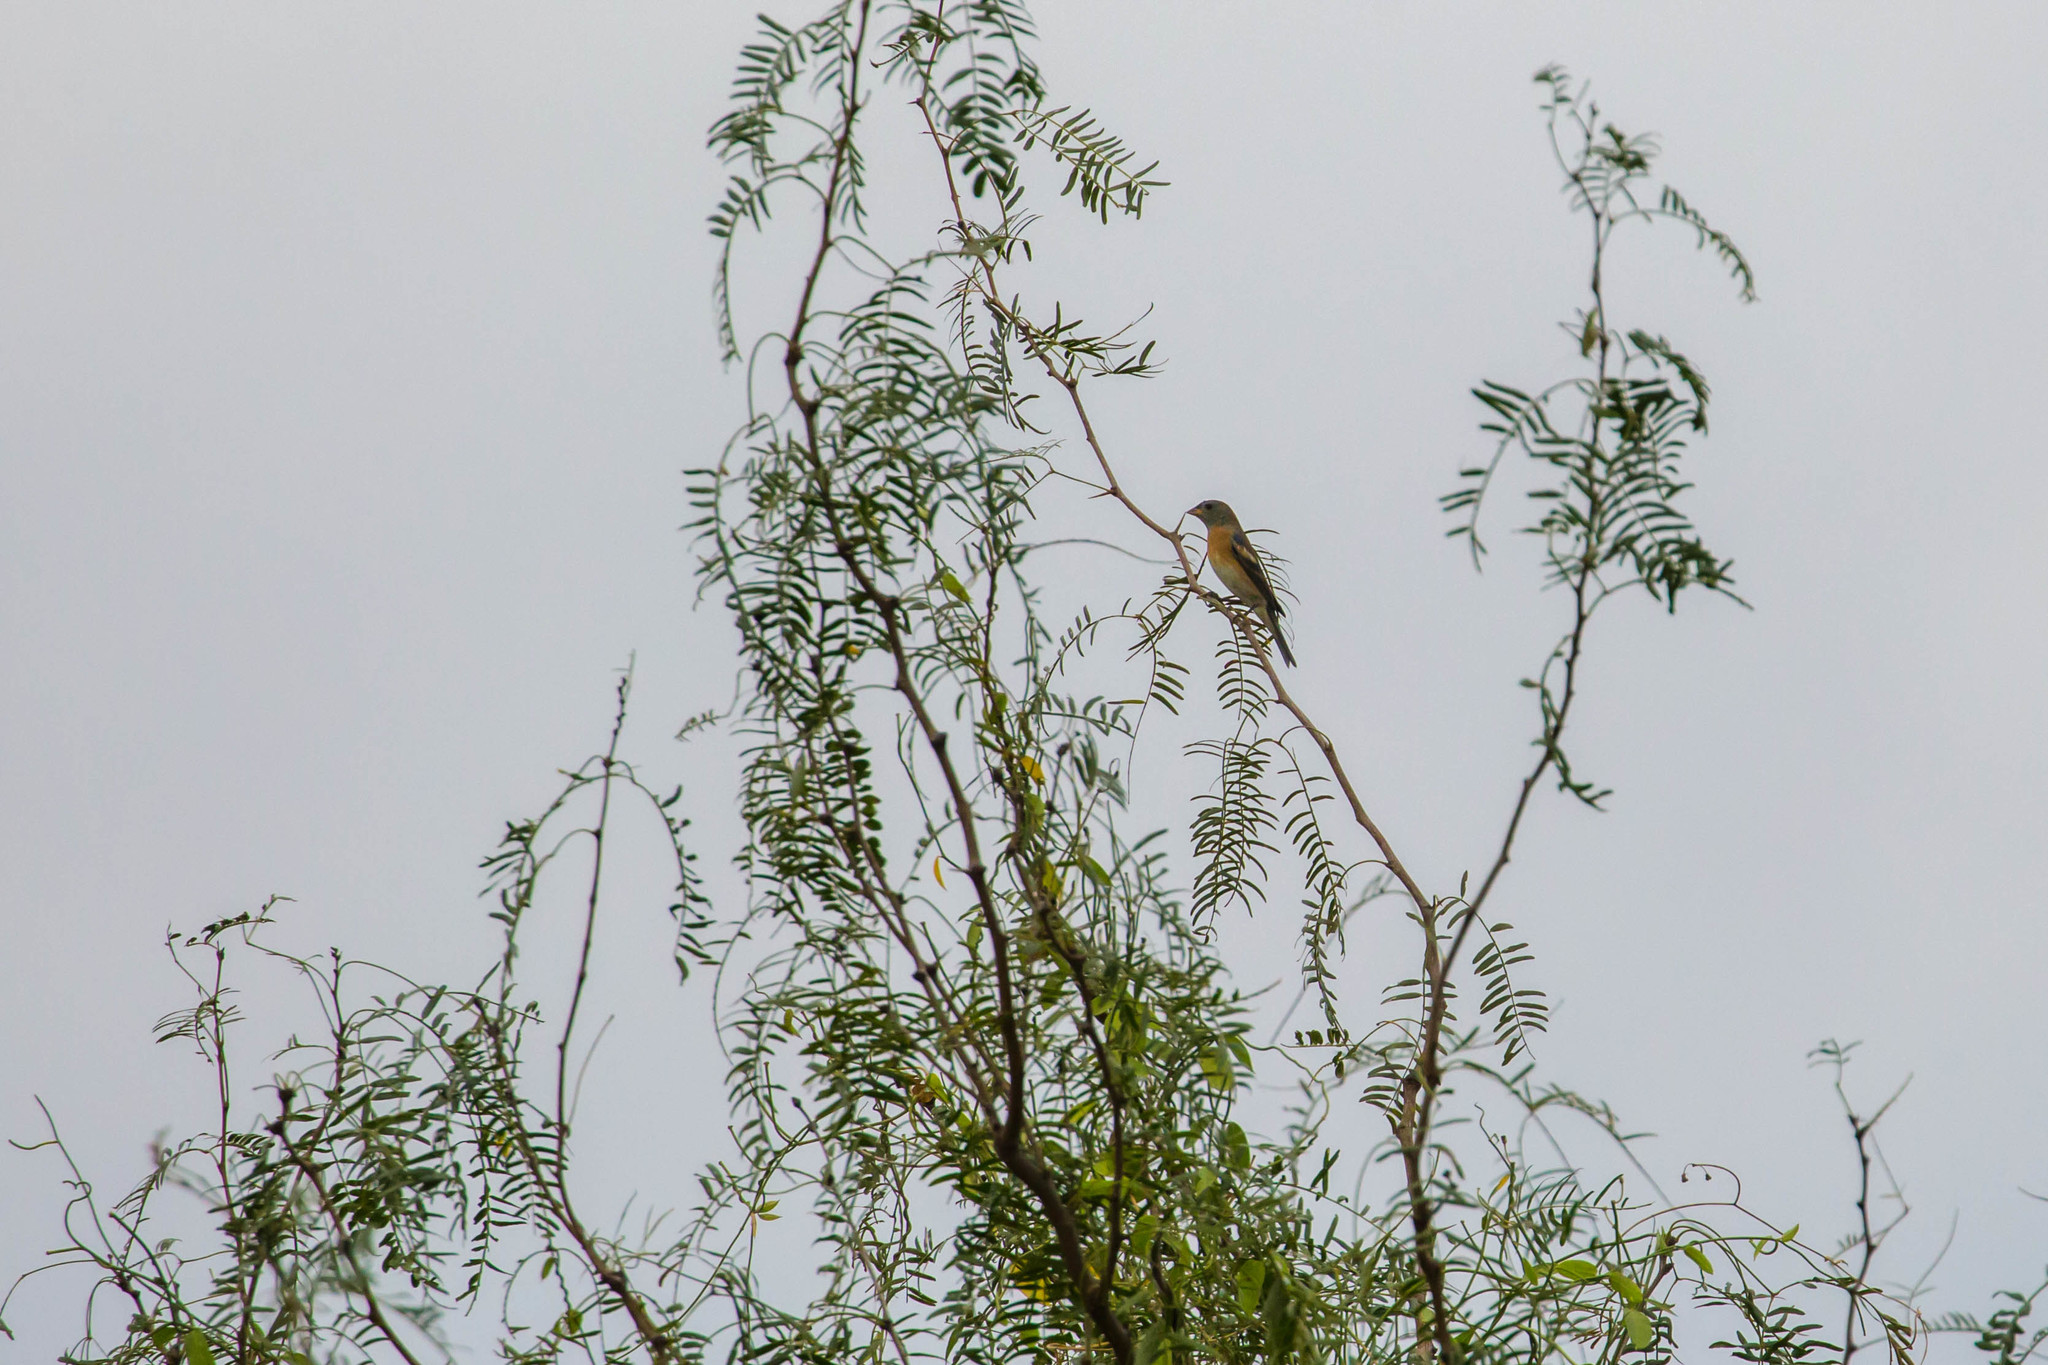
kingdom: Animalia
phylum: Chordata
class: Aves
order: Passeriformes
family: Cardinalidae
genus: Passerina
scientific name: Passerina amoena
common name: Lazuli bunting
